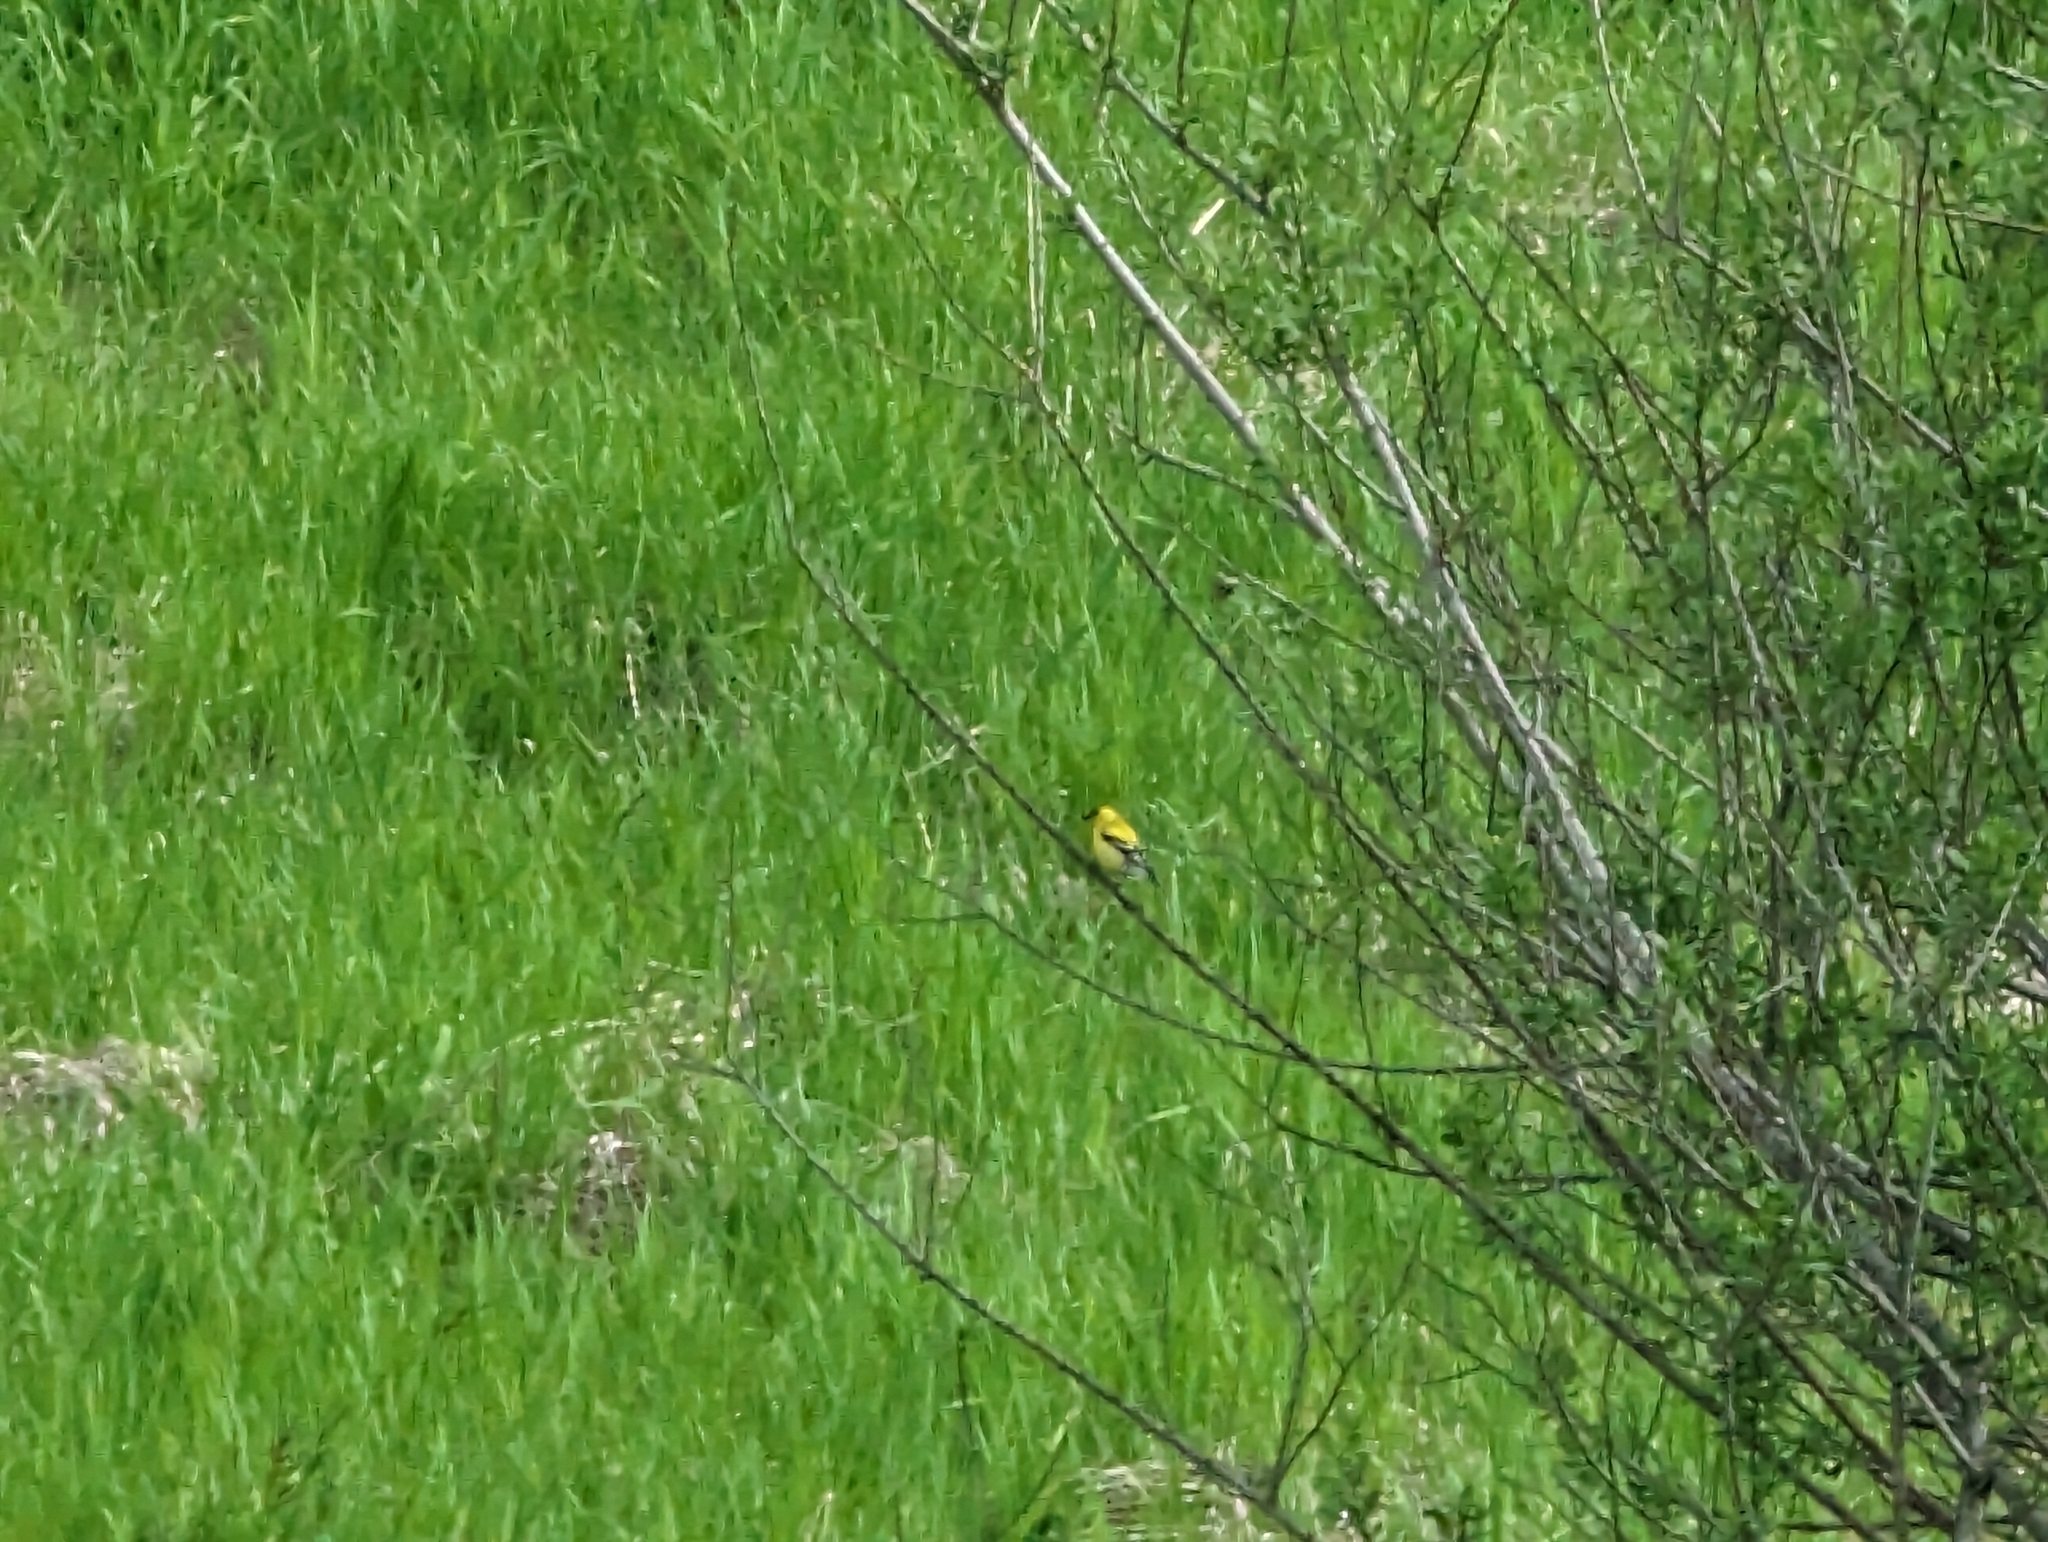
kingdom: Animalia
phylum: Chordata
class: Aves
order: Passeriformes
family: Fringillidae
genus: Spinus
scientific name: Spinus tristis
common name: American goldfinch
